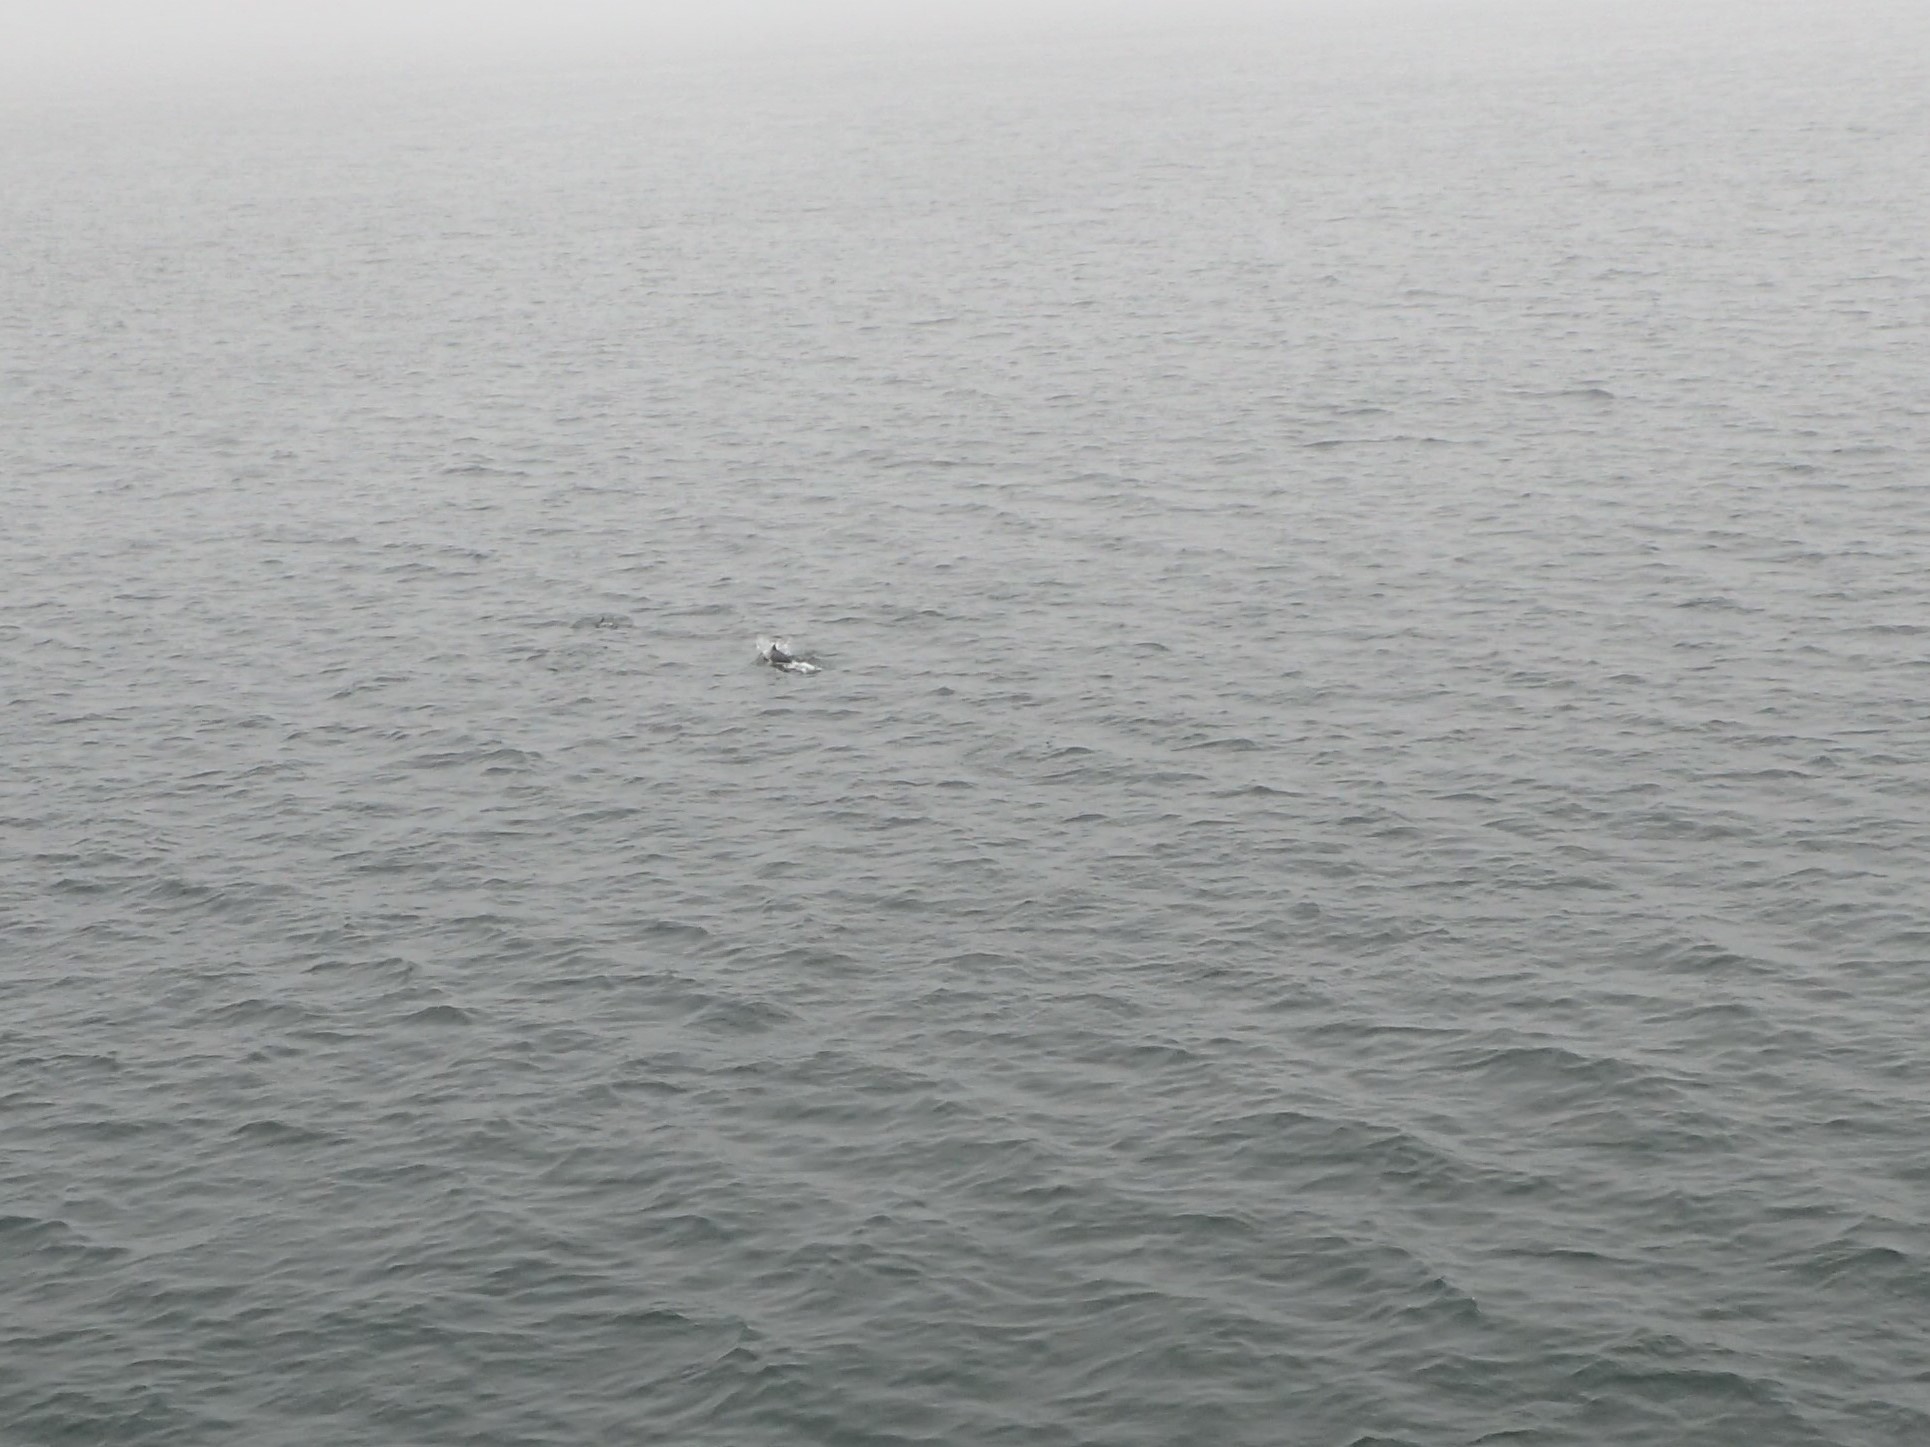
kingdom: Animalia
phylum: Chordata
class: Mammalia
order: Cetacea
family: Phocoenidae
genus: Phocoena
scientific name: Phocoena phocoena
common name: Harbor porpoise
